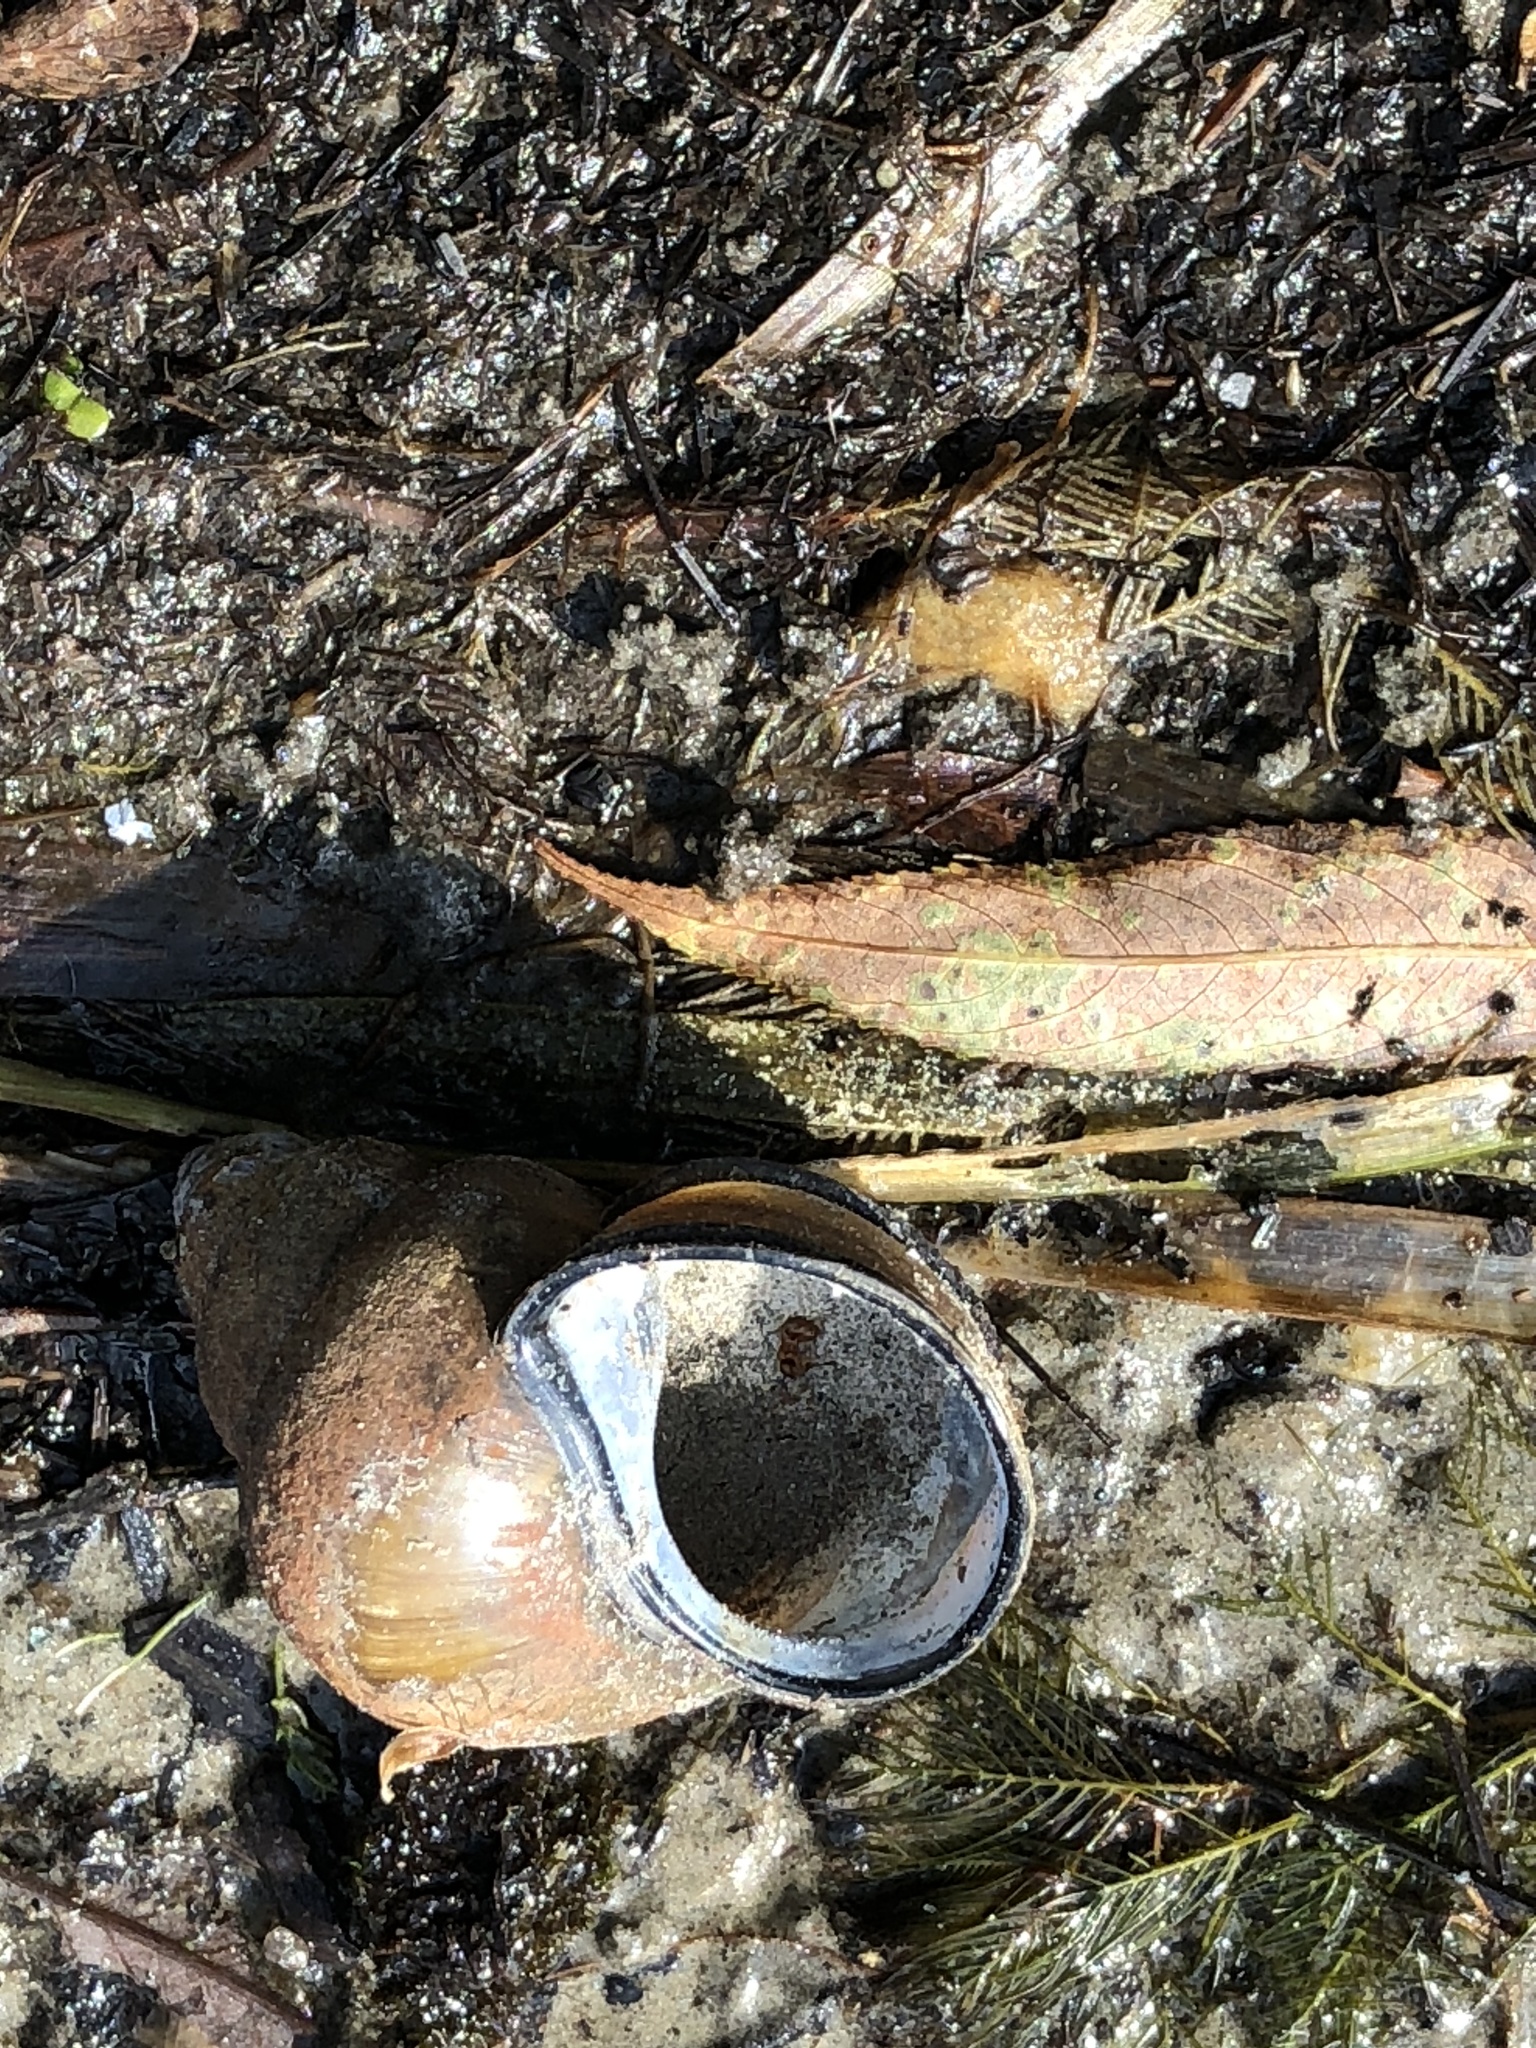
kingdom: Animalia
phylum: Mollusca
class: Gastropoda
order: Architaenioglossa
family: Viviparidae
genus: Cipangopaludina
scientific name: Cipangopaludina chinensis
